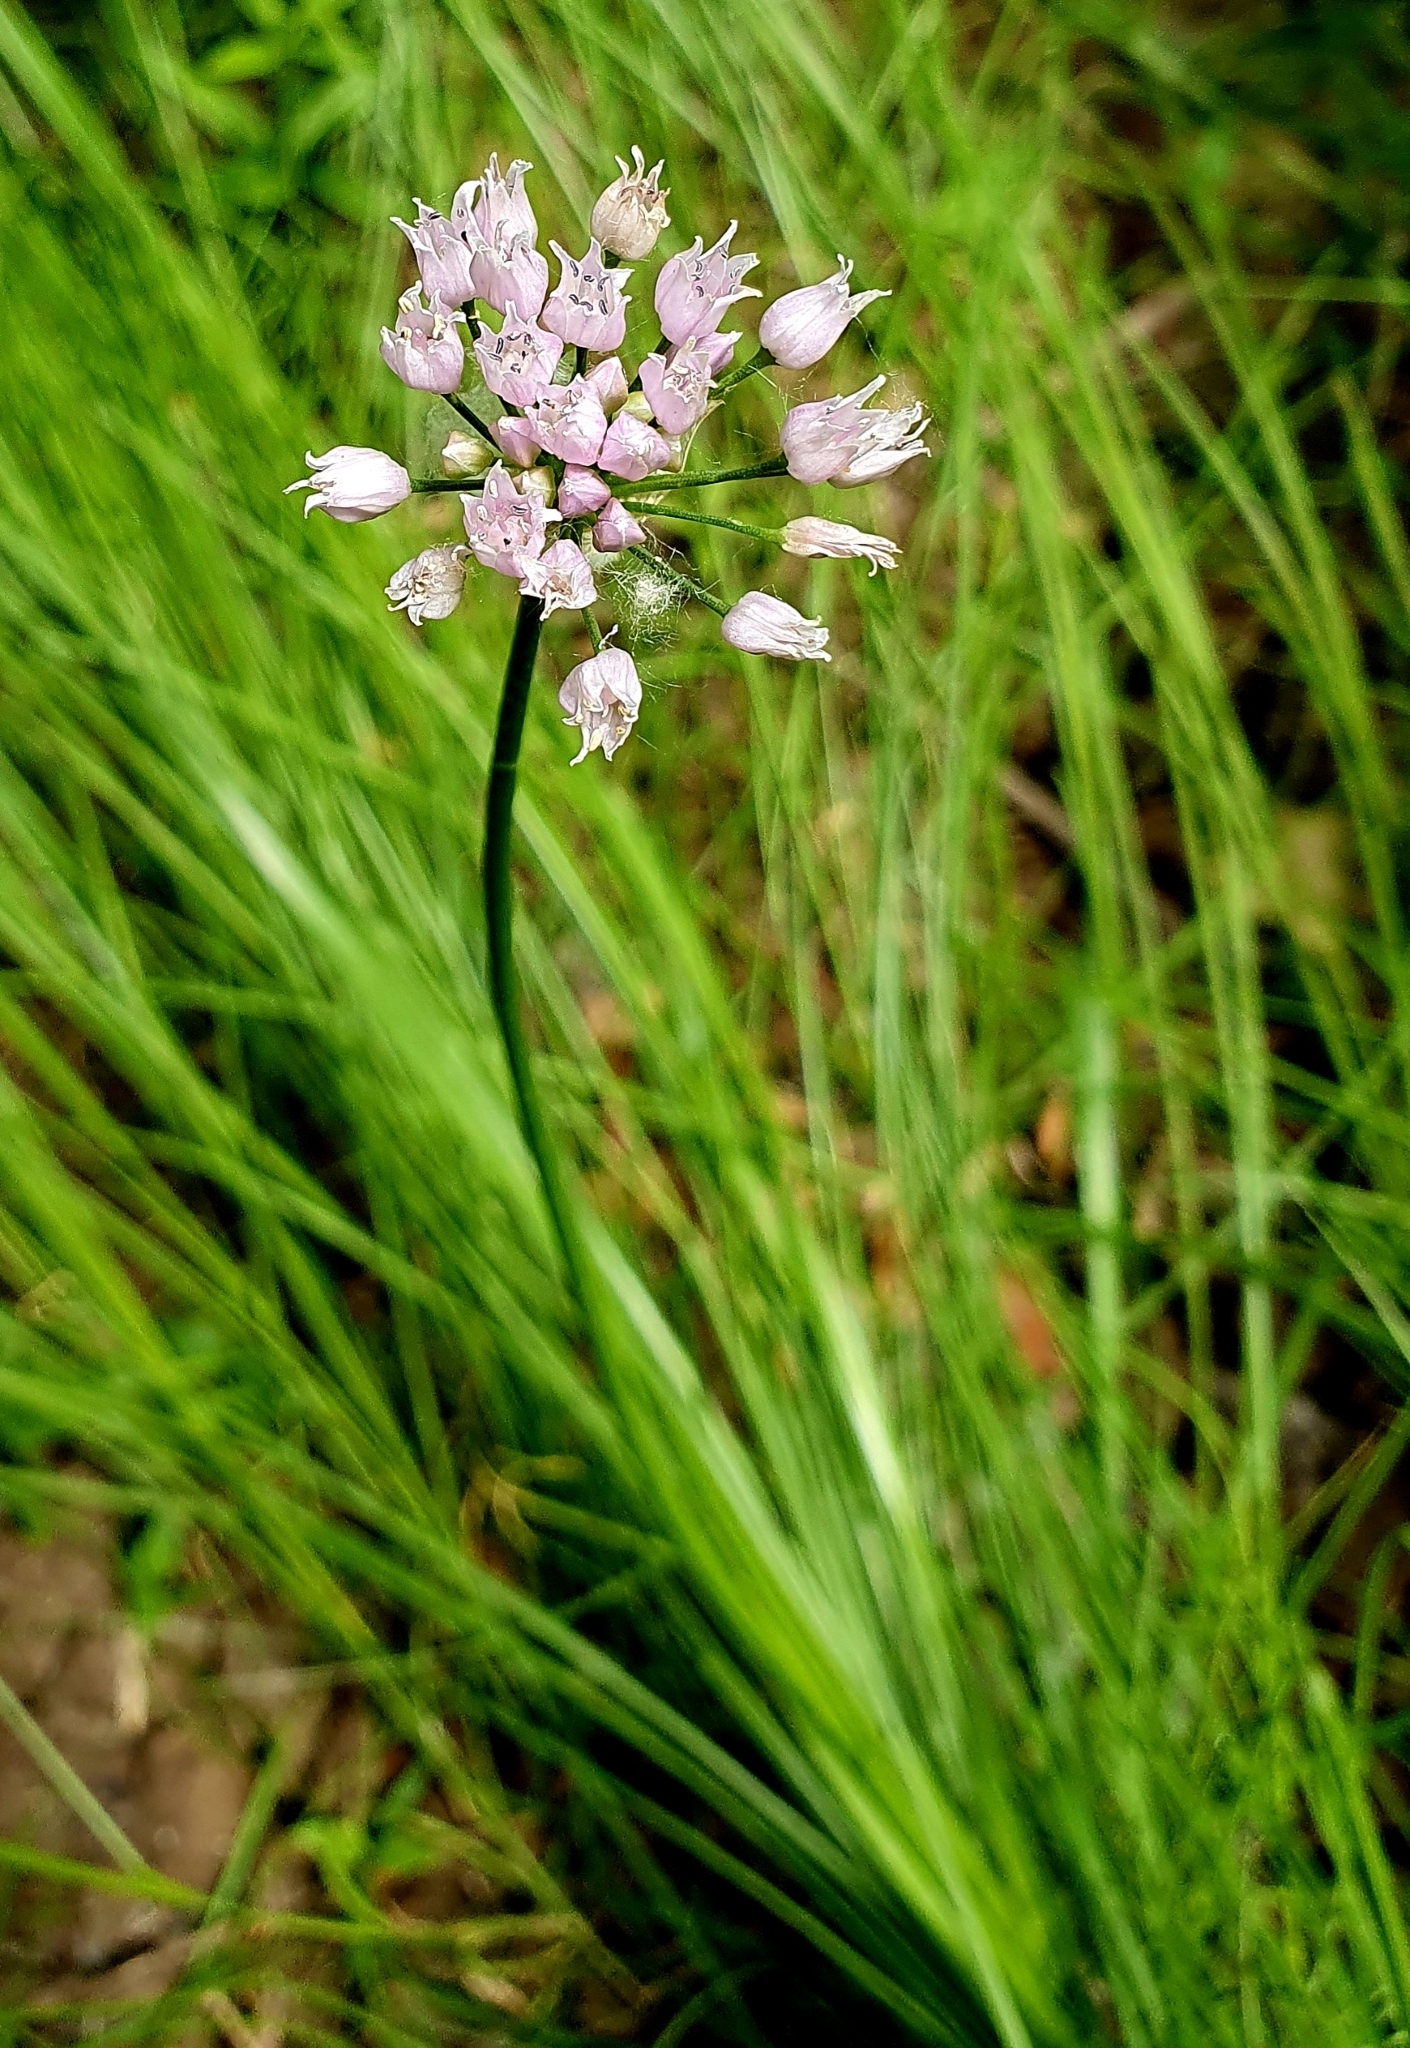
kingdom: Plantae
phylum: Tracheophyta
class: Liliopsida
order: Asparagales
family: Amaryllidaceae
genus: Allium
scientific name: Allium angulosum
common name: Mouse garlic
